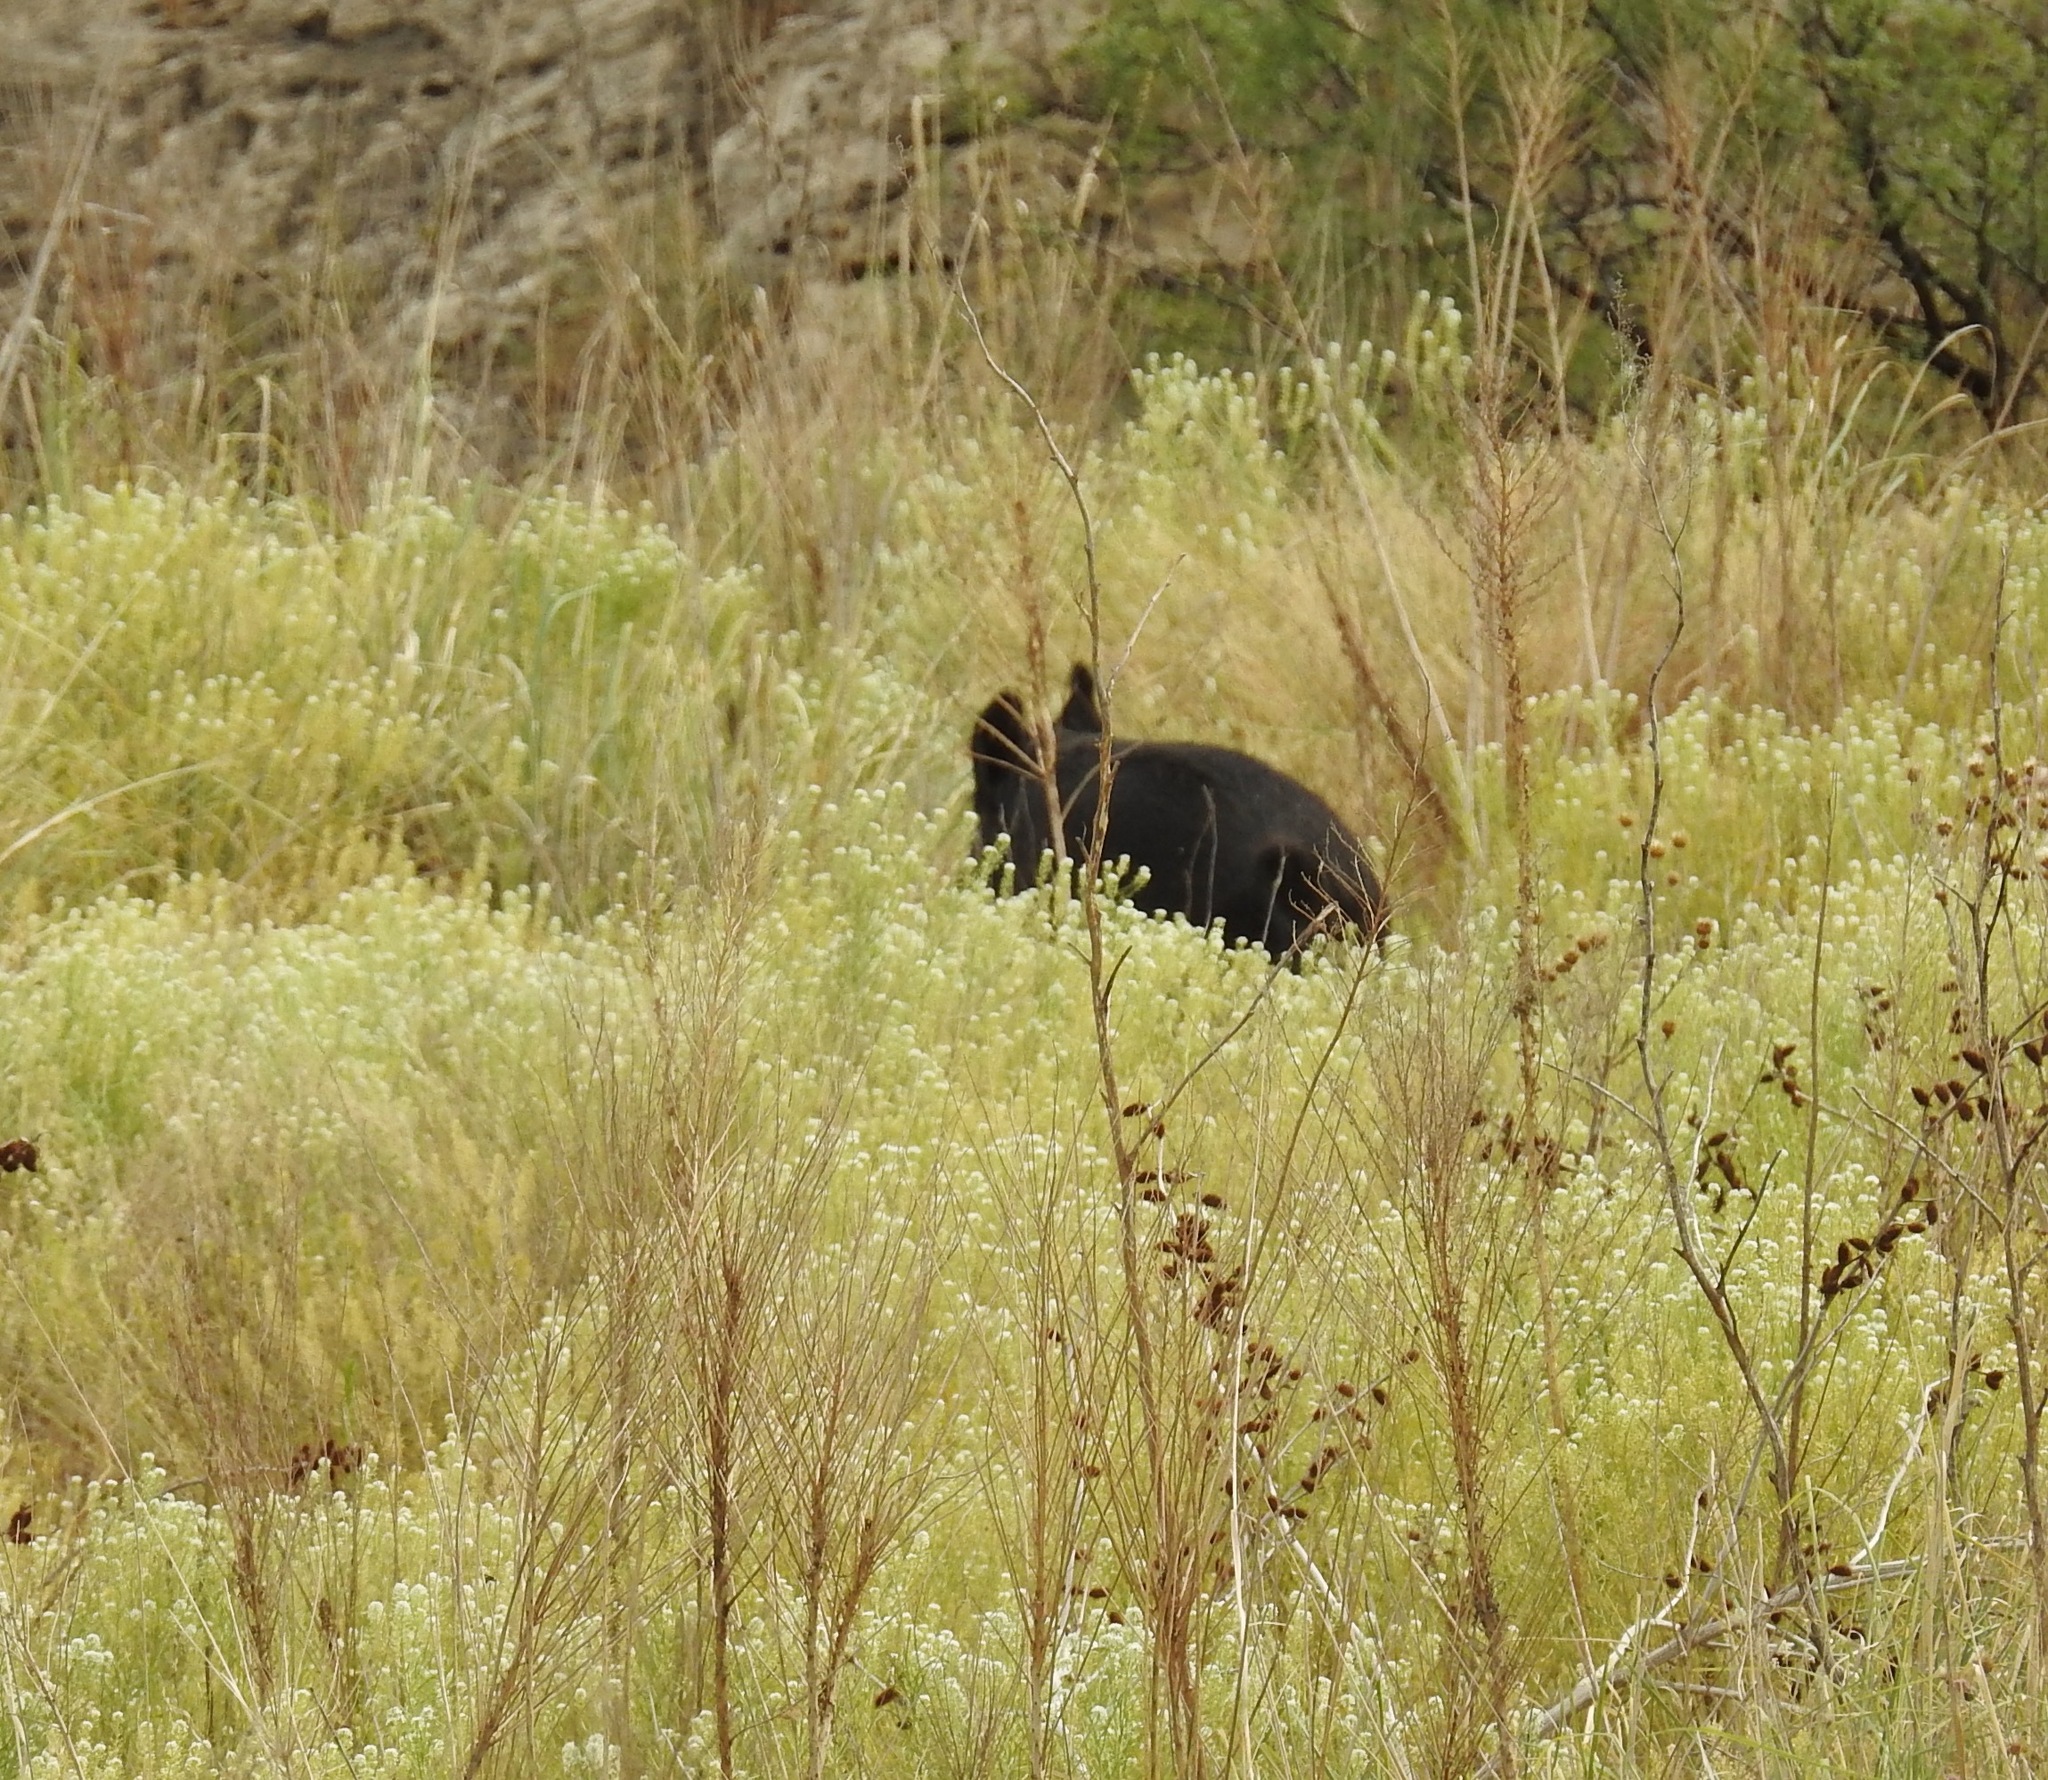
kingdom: Animalia
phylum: Chordata
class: Mammalia
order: Artiodactyla
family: Suidae
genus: Sus
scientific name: Sus scrofa
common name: Wild boar
